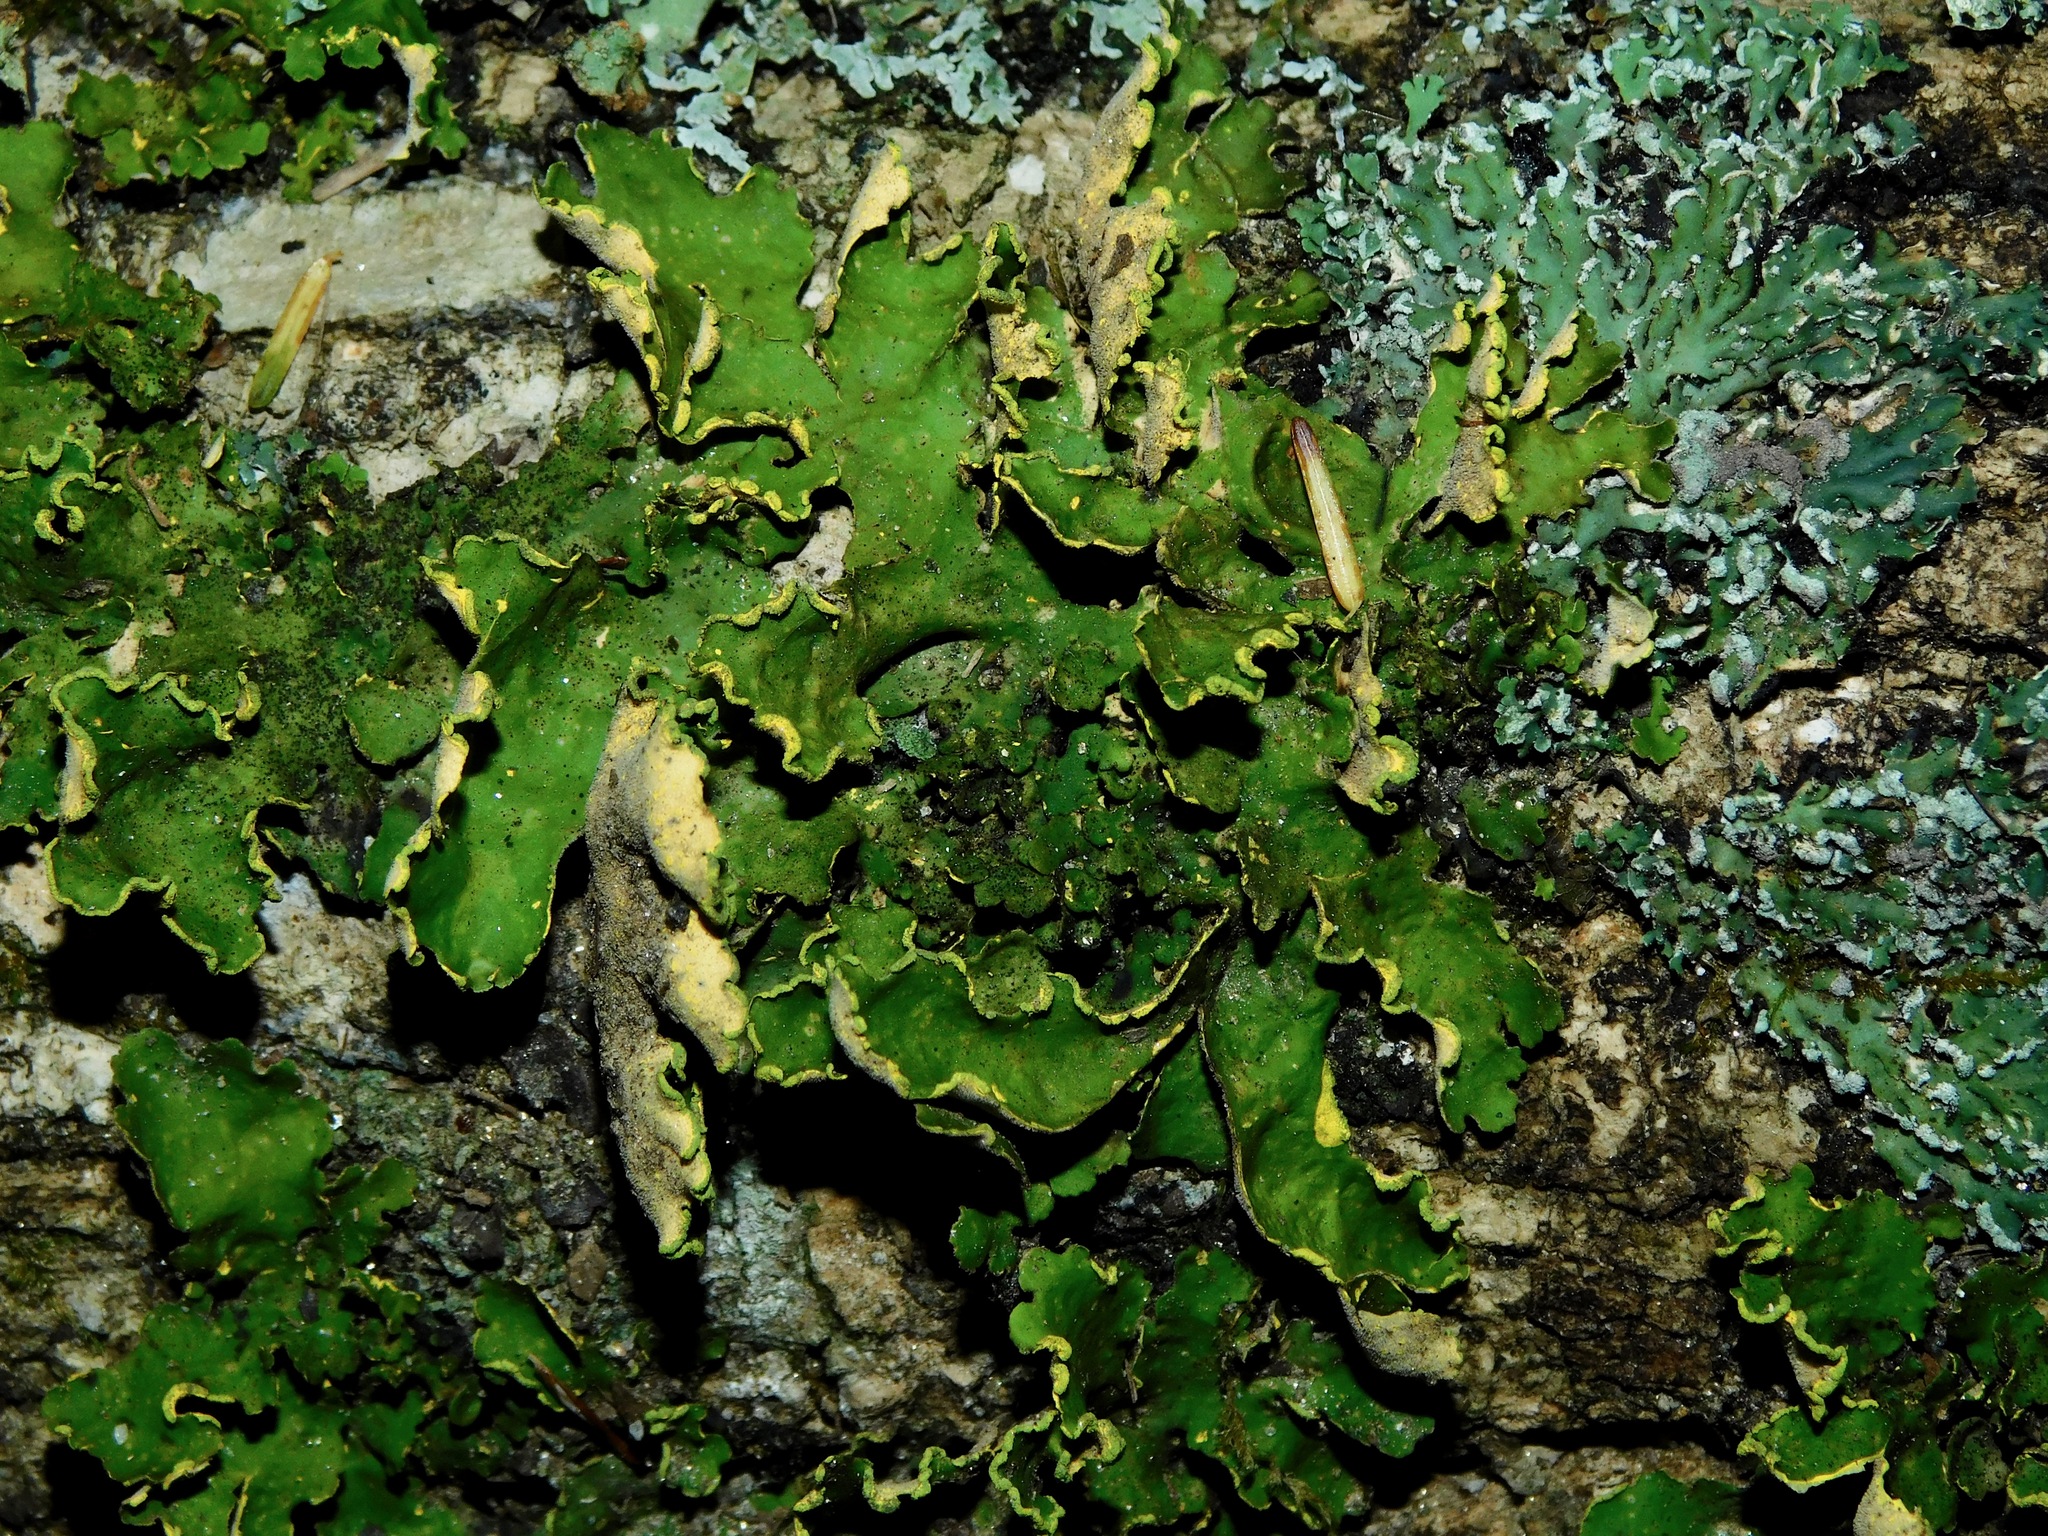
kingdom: Fungi
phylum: Ascomycota
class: Lecanoromycetes
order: Peltigerales
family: Lobariaceae
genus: Pseudocyphellaria
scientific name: Pseudocyphellaria aurata
